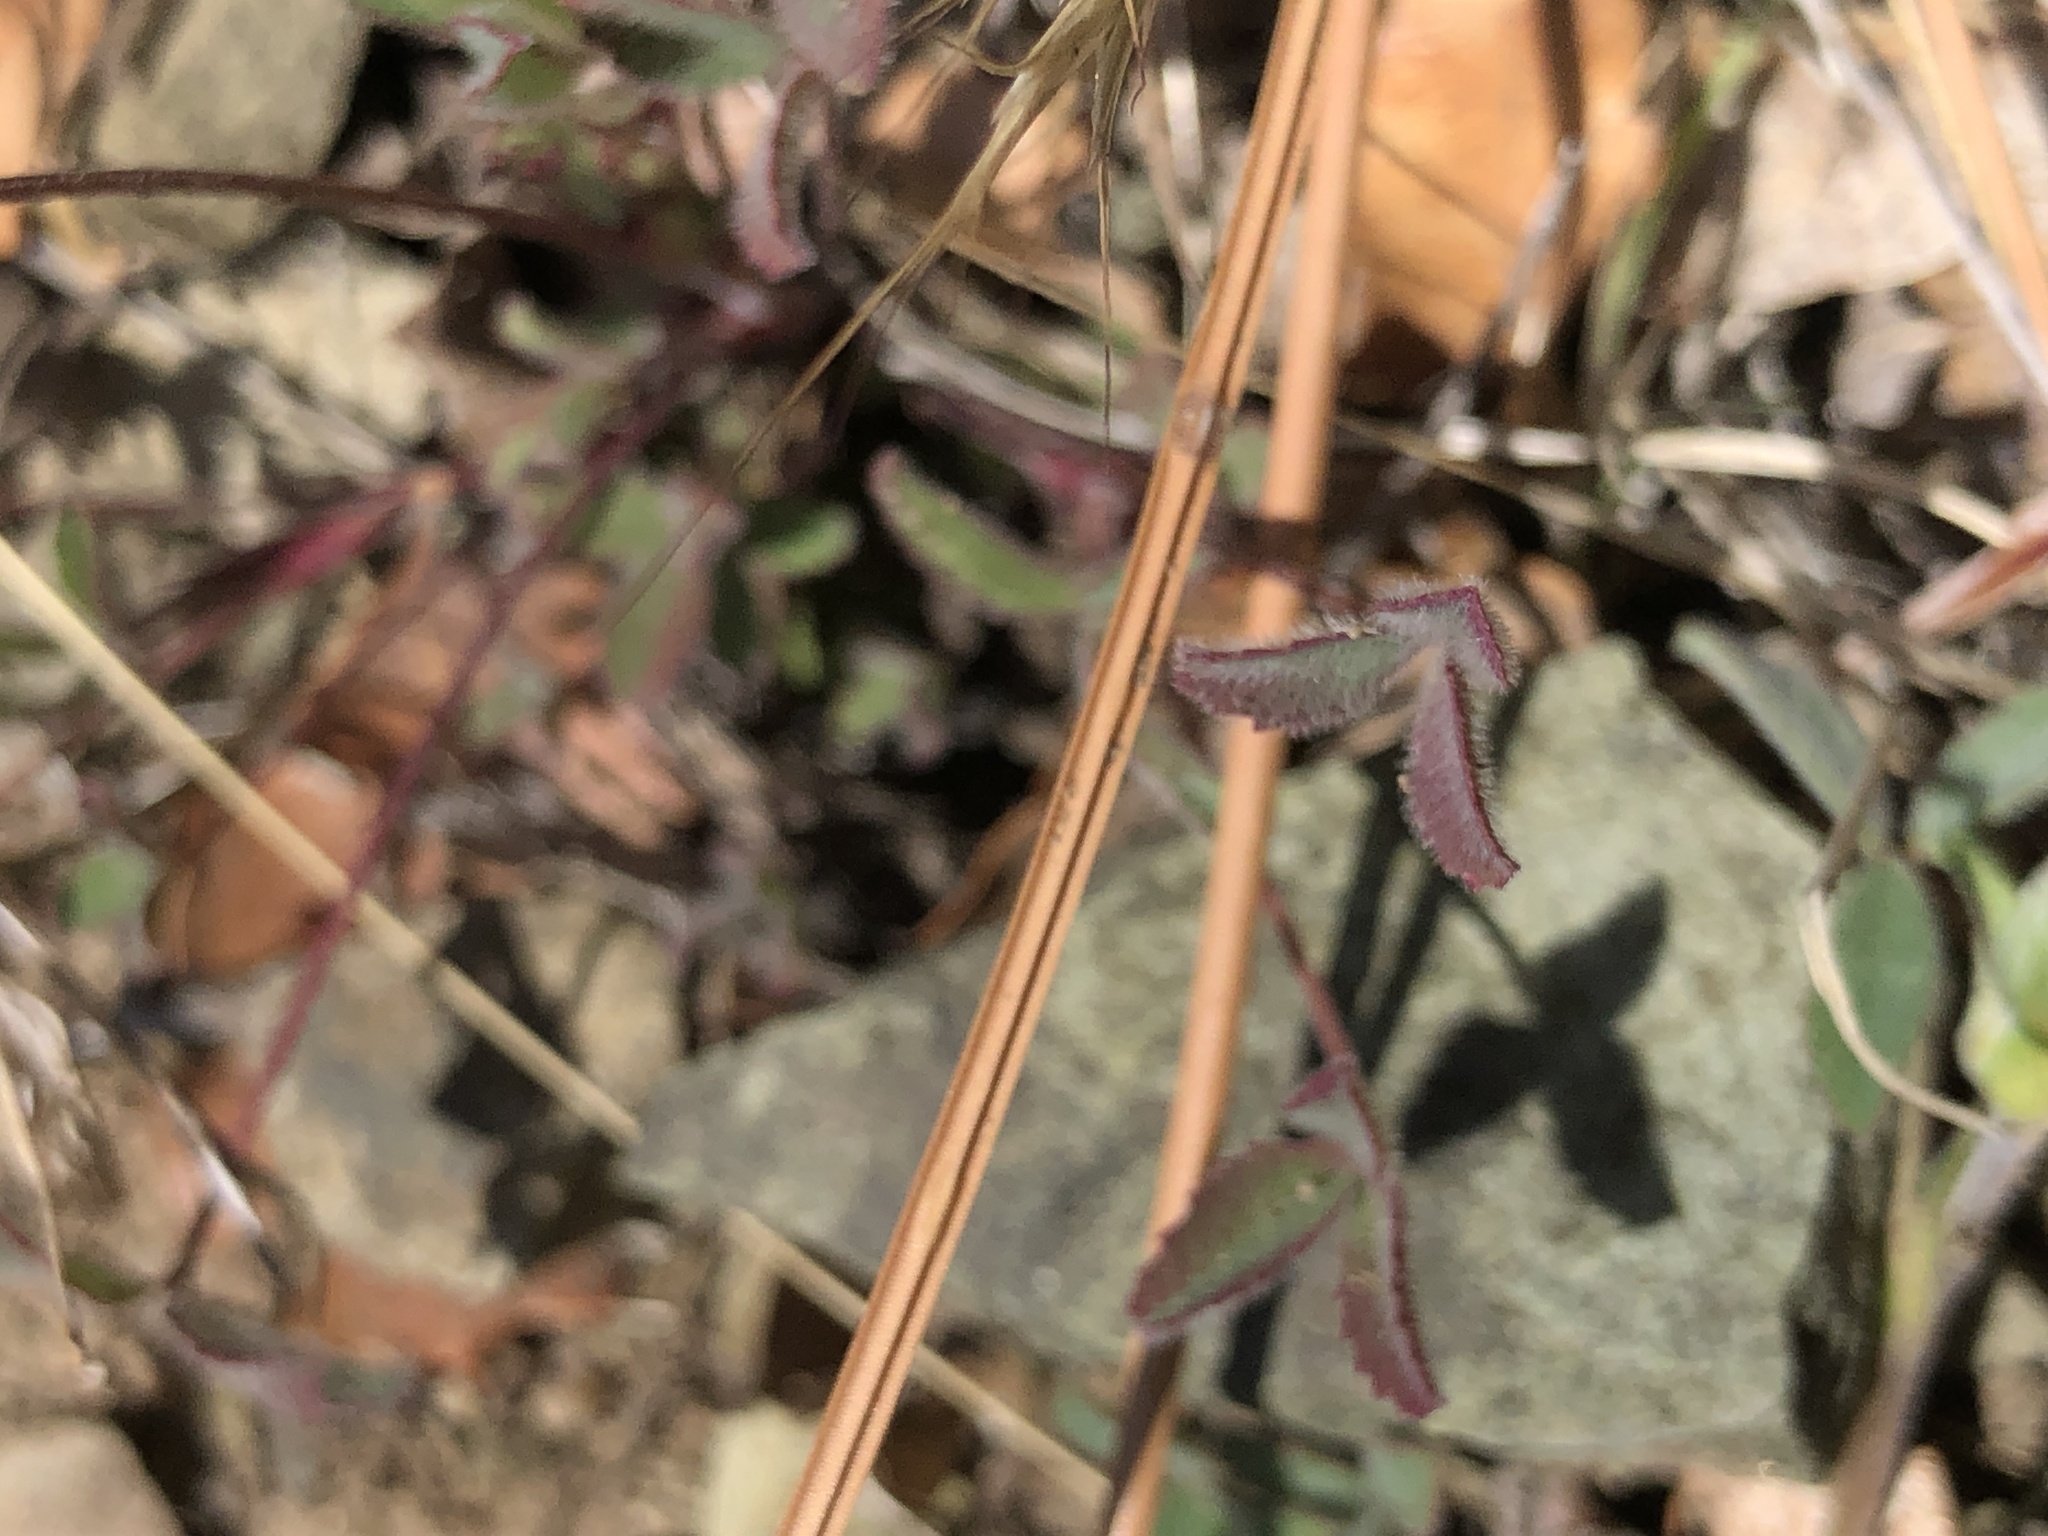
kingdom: Plantae
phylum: Tracheophyta
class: Magnoliopsida
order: Fabales
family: Fabaceae
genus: Trifolium
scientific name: Trifolium albopurpureum
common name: Rancheria clover
